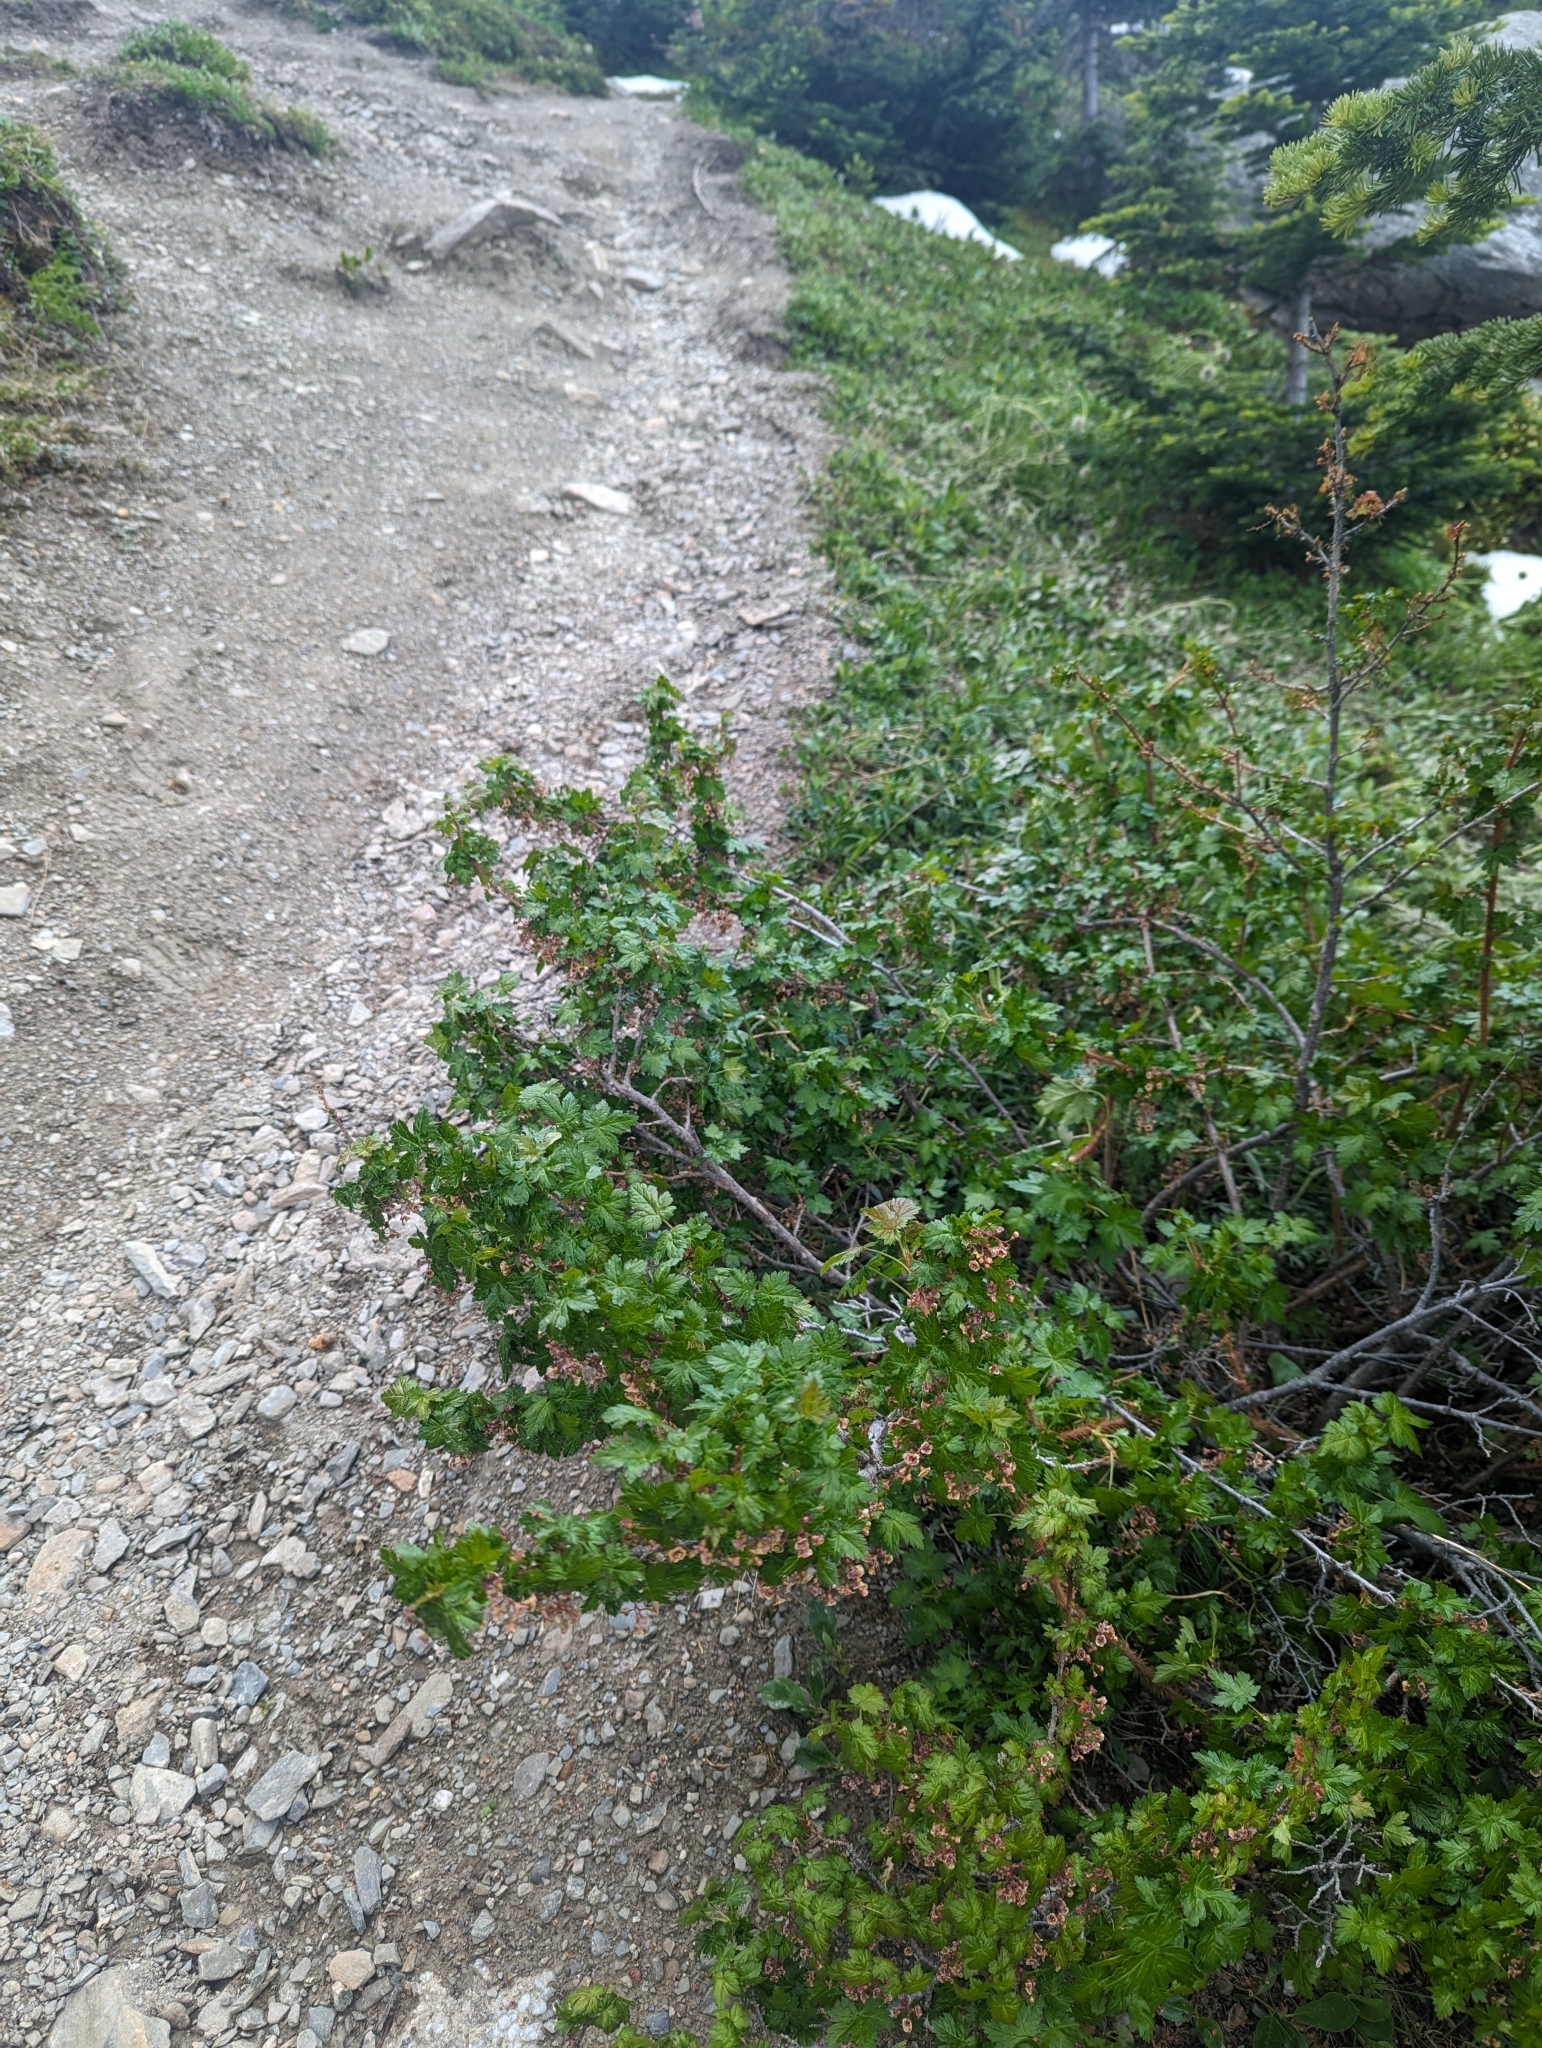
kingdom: Plantae
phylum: Tracheophyta
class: Magnoliopsida
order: Saxifragales
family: Grossulariaceae
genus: Ribes
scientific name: Ribes lacustre
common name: Black gooseberry
